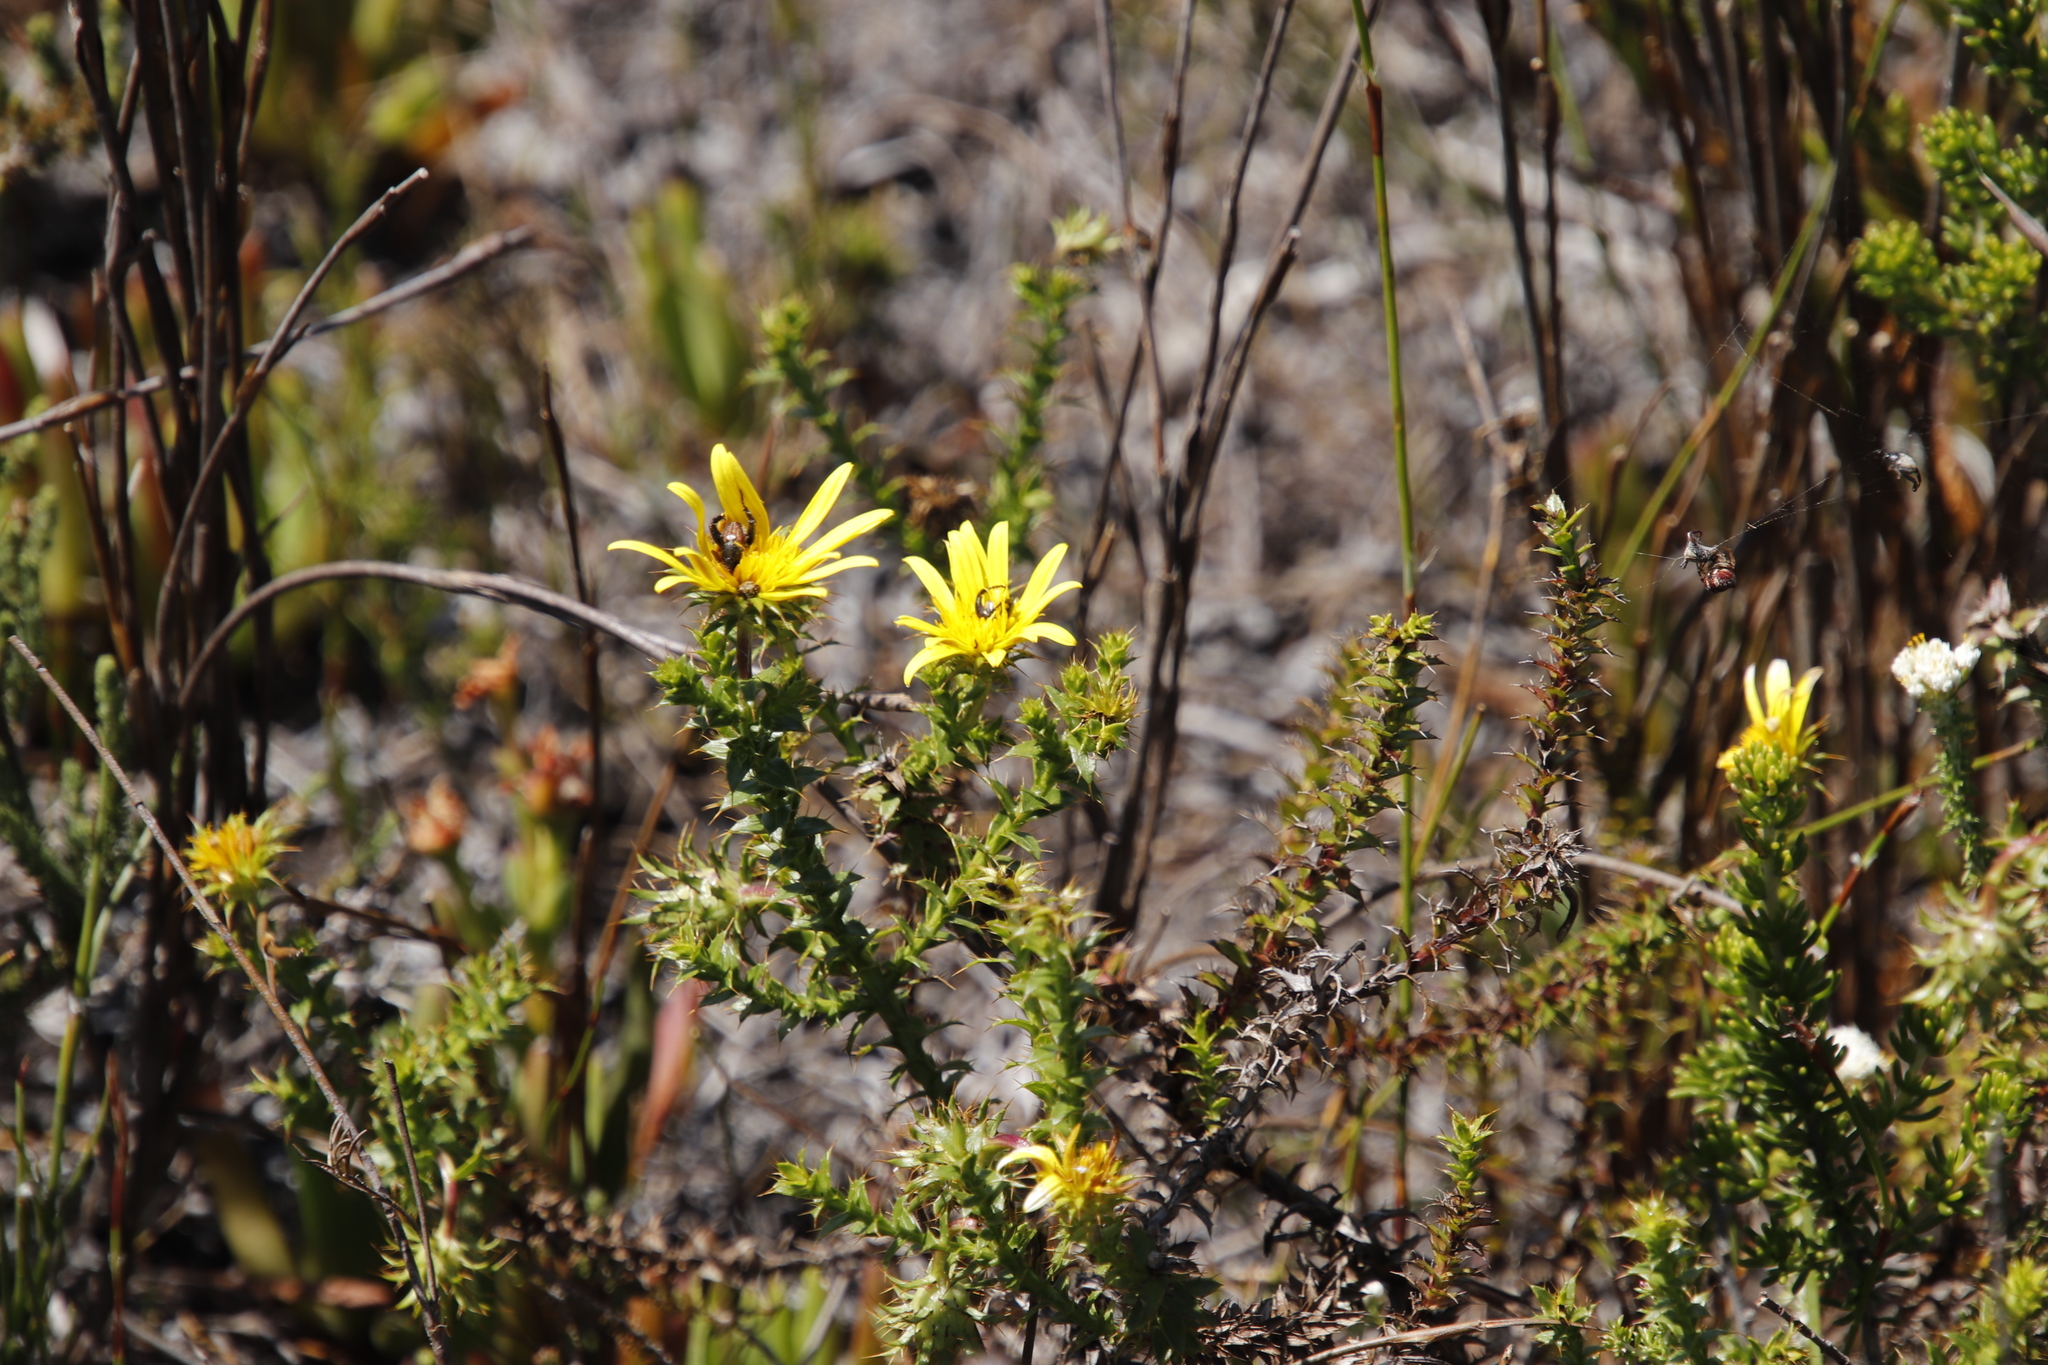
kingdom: Plantae
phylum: Tracheophyta
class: Magnoliopsida
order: Asterales
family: Asteraceae
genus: Cullumia
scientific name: Cullumia setosa
